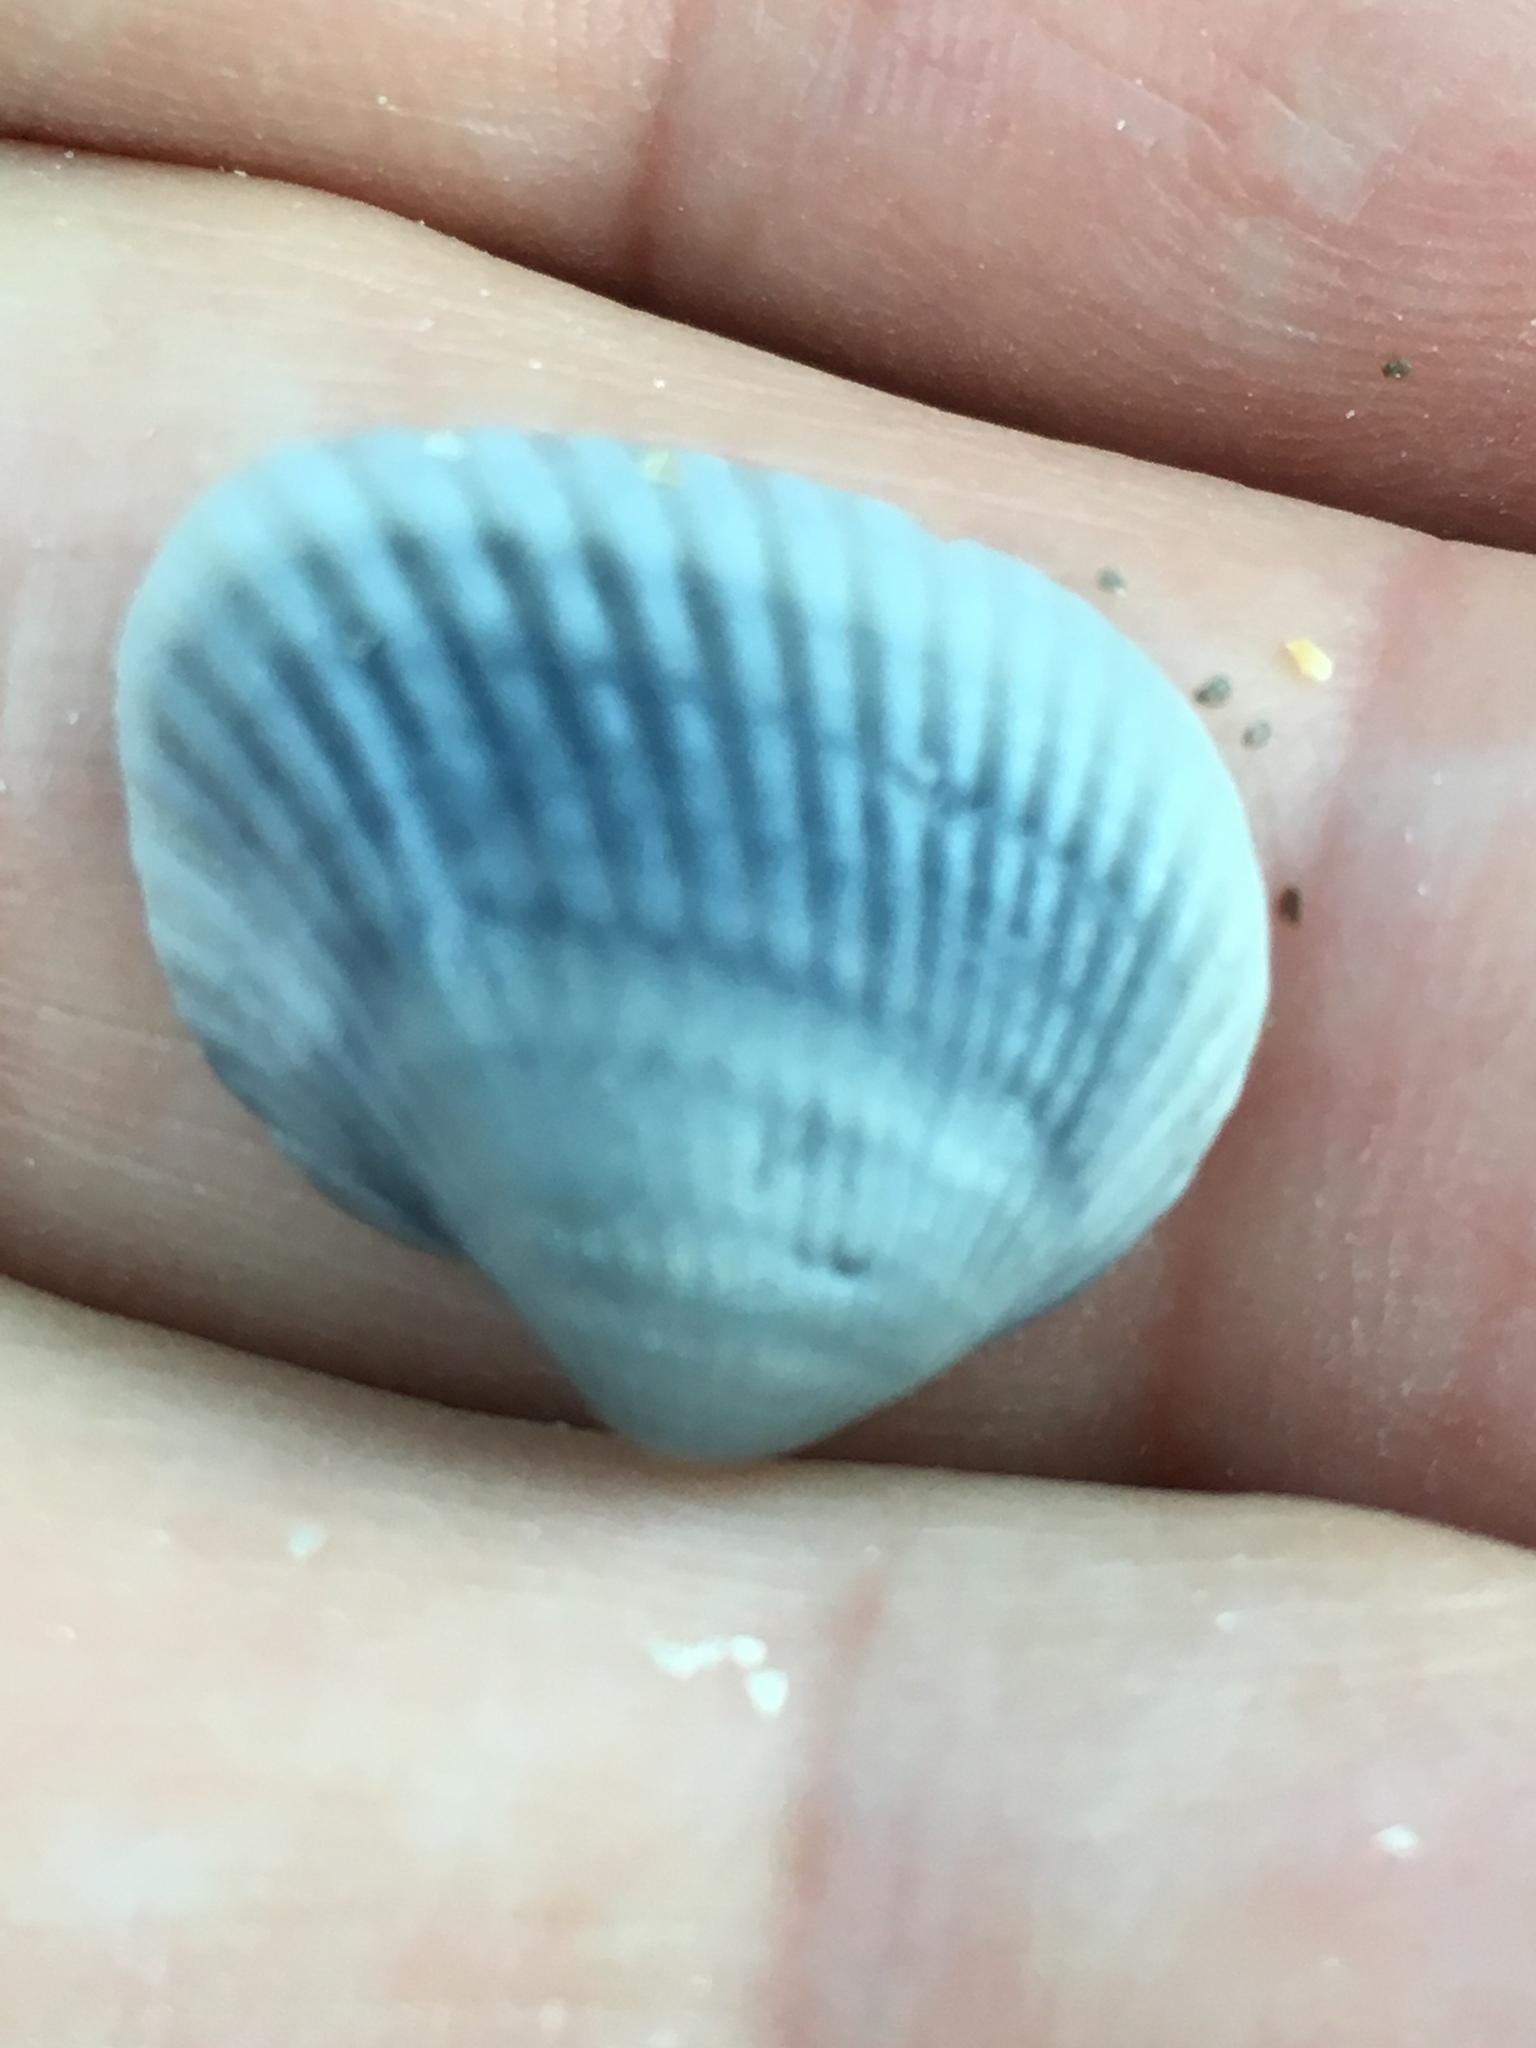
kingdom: Animalia
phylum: Mollusca
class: Bivalvia
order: Arcida
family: Noetiidae
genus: Noetia
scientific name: Noetia ponderosa
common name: Ponderous ark
